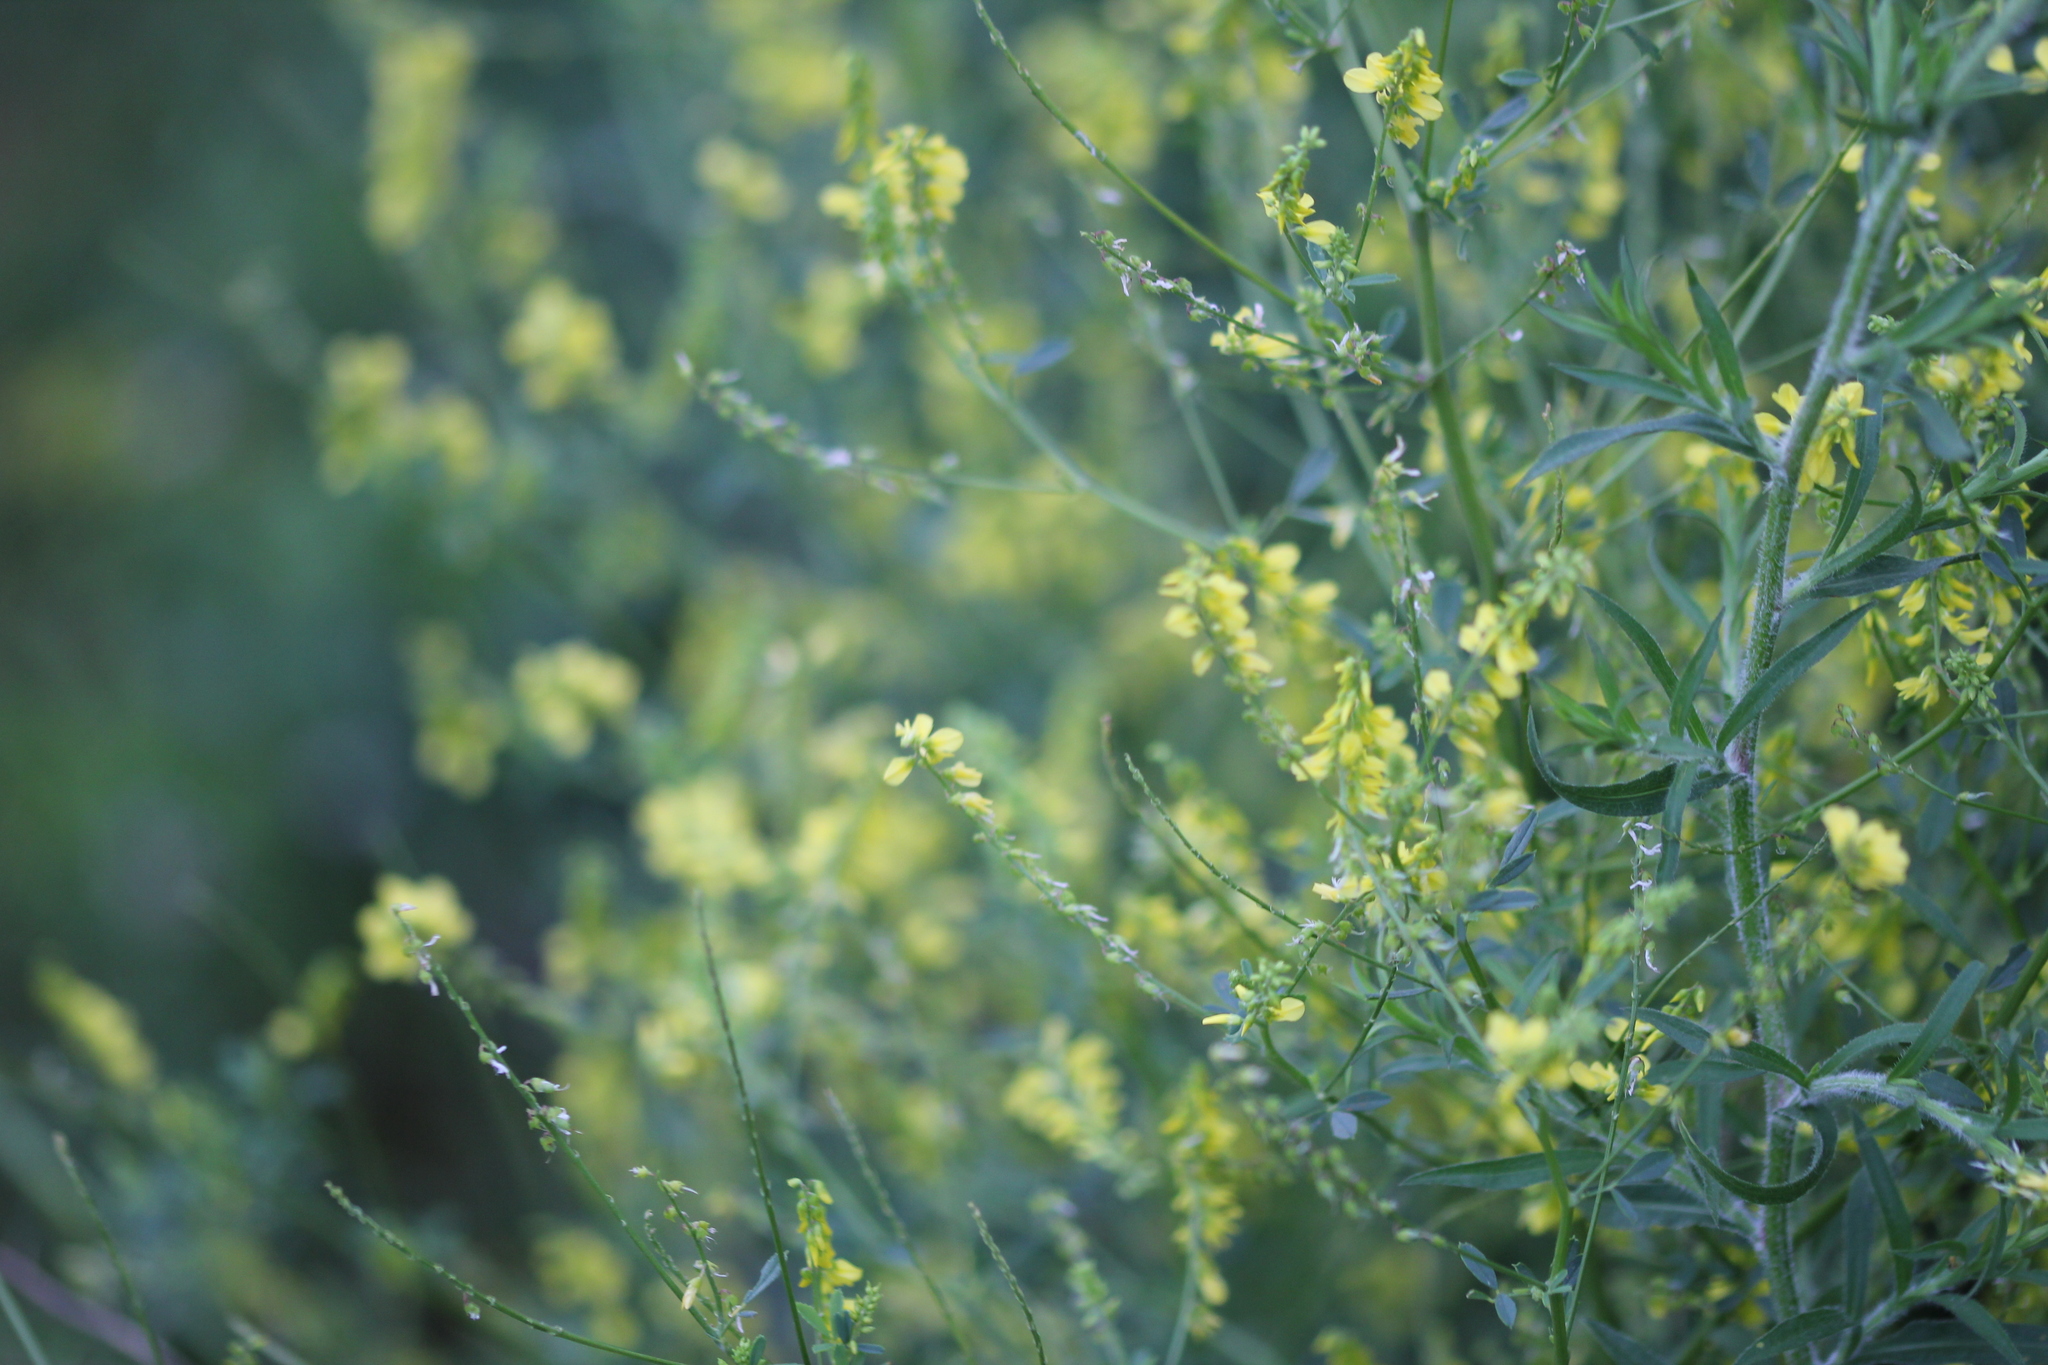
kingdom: Plantae
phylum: Tracheophyta
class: Magnoliopsida
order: Fabales
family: Fabaceae
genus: Melilotus
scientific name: Melilotus officinalis
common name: Sweetclover
